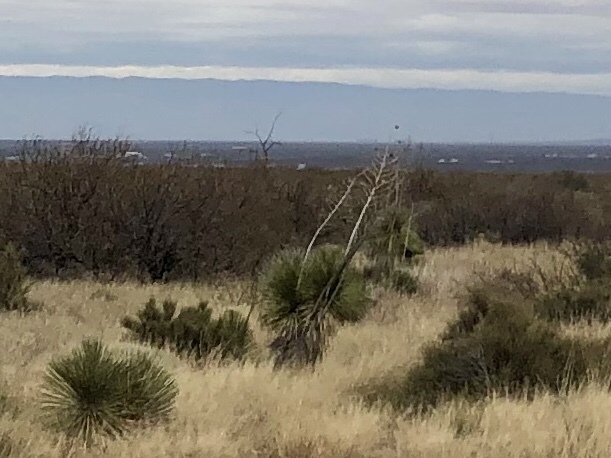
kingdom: Plantae
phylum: Tracheophyta
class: Liliopsida
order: Asparagales
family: Asparagaceae
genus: Yucca
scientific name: Yucca elata
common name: Palmella
